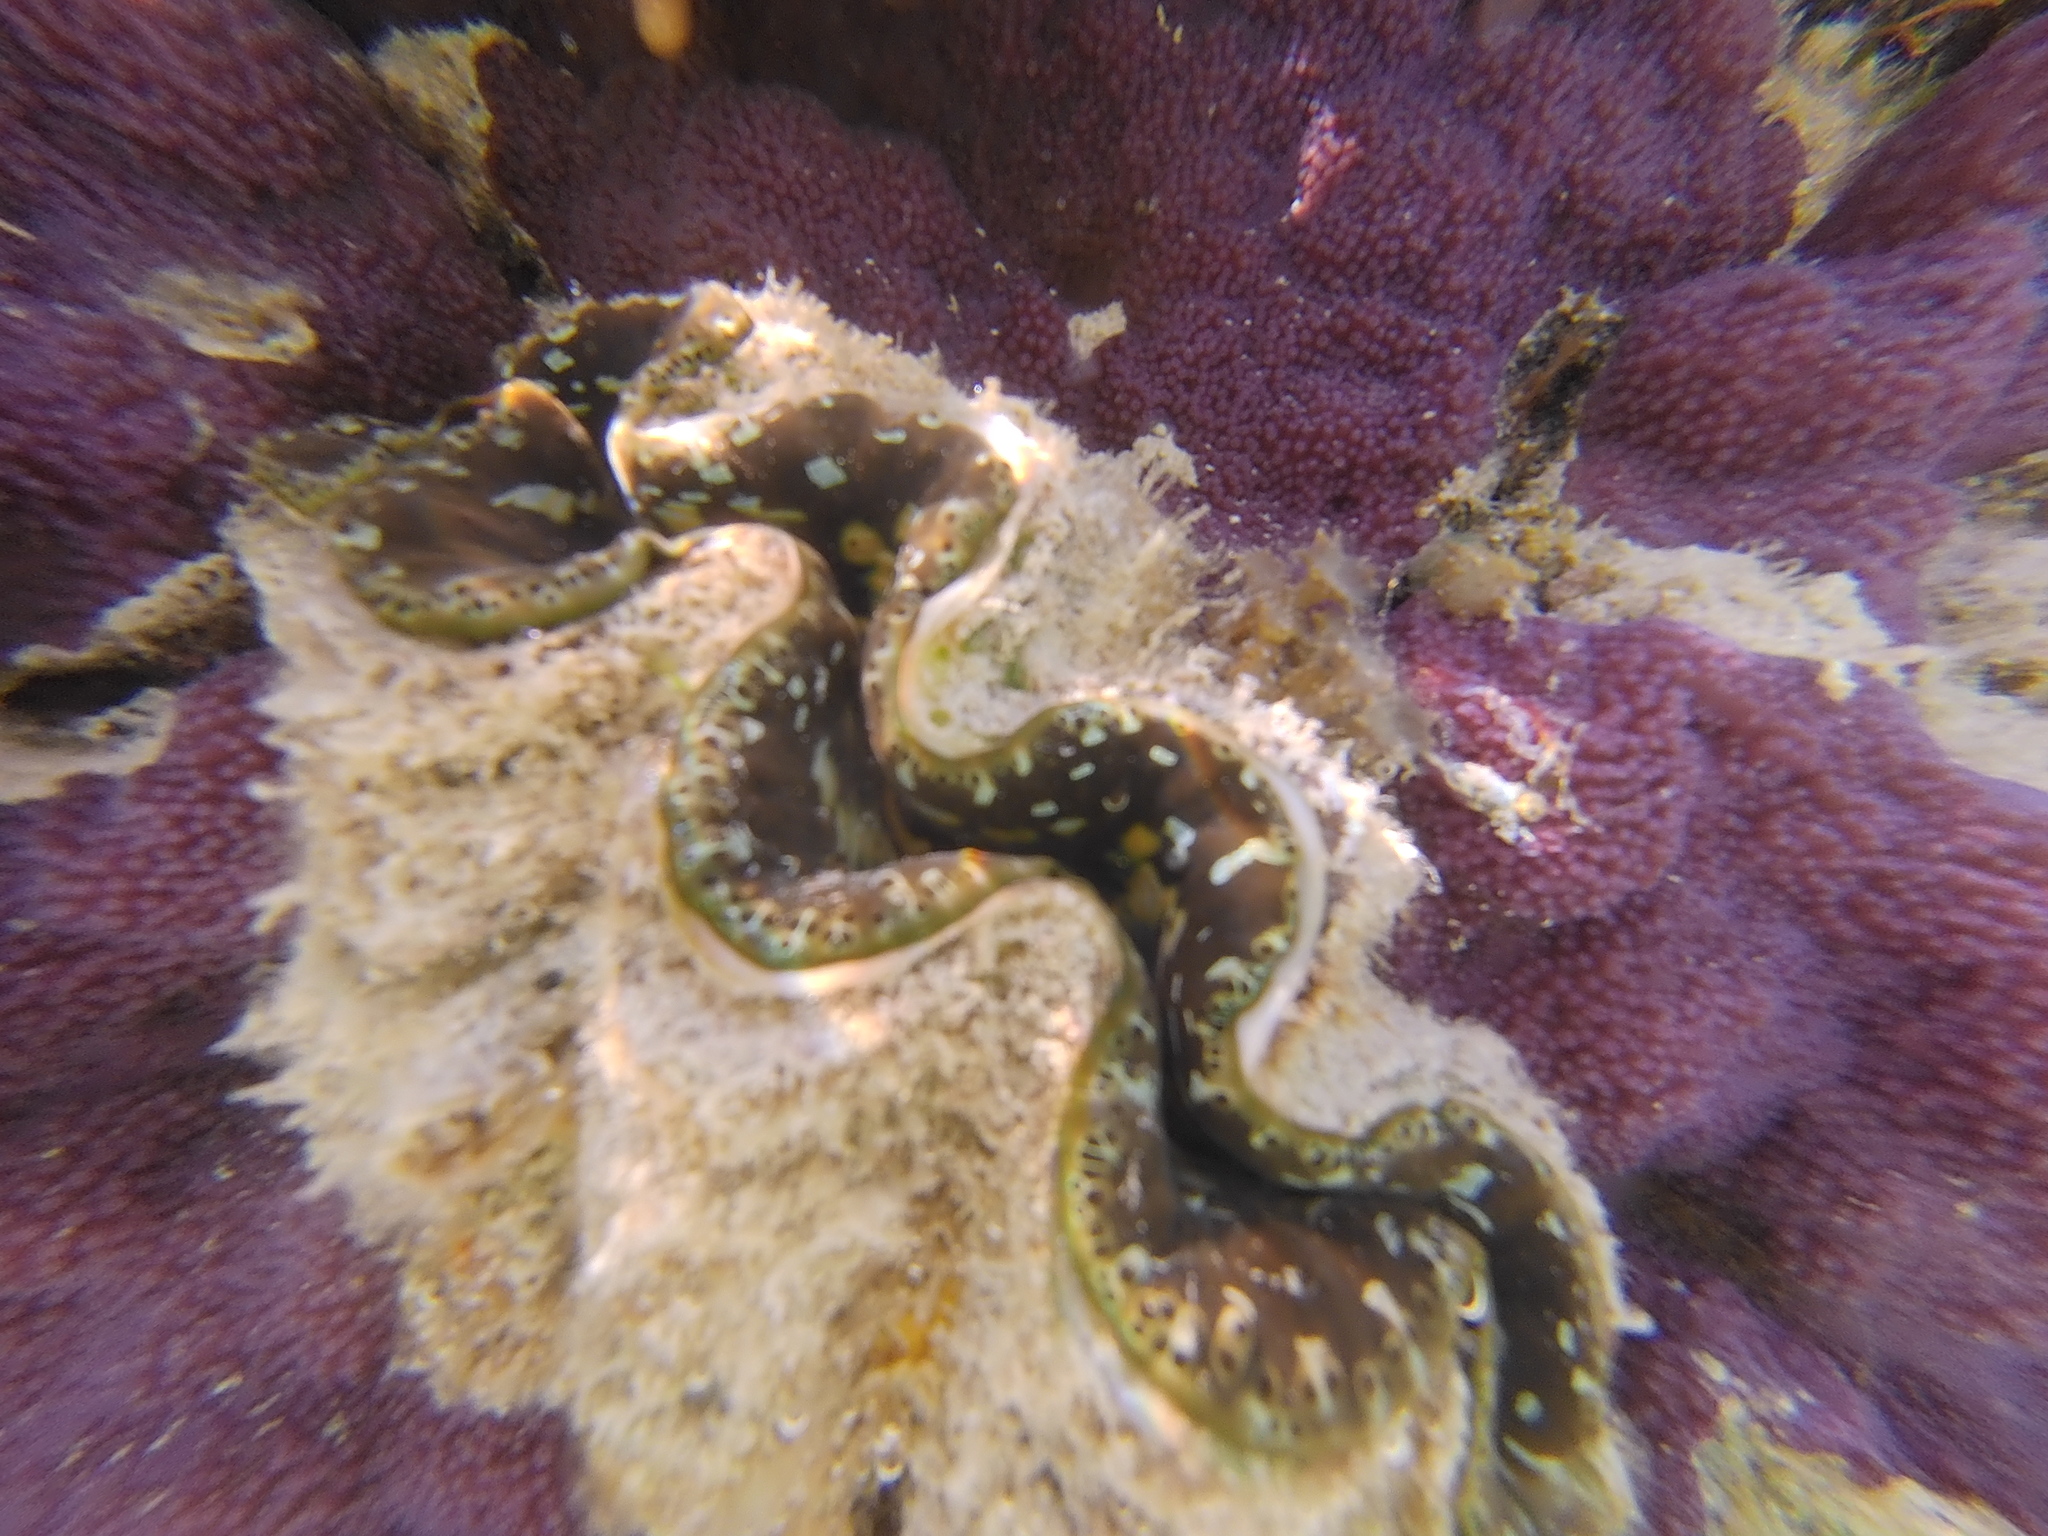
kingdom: Animalia
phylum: Mollusca
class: Bivalvia
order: Cardiida
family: Cardiidae
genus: Tridacna
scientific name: Tridacna maxima
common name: Small giant clam
